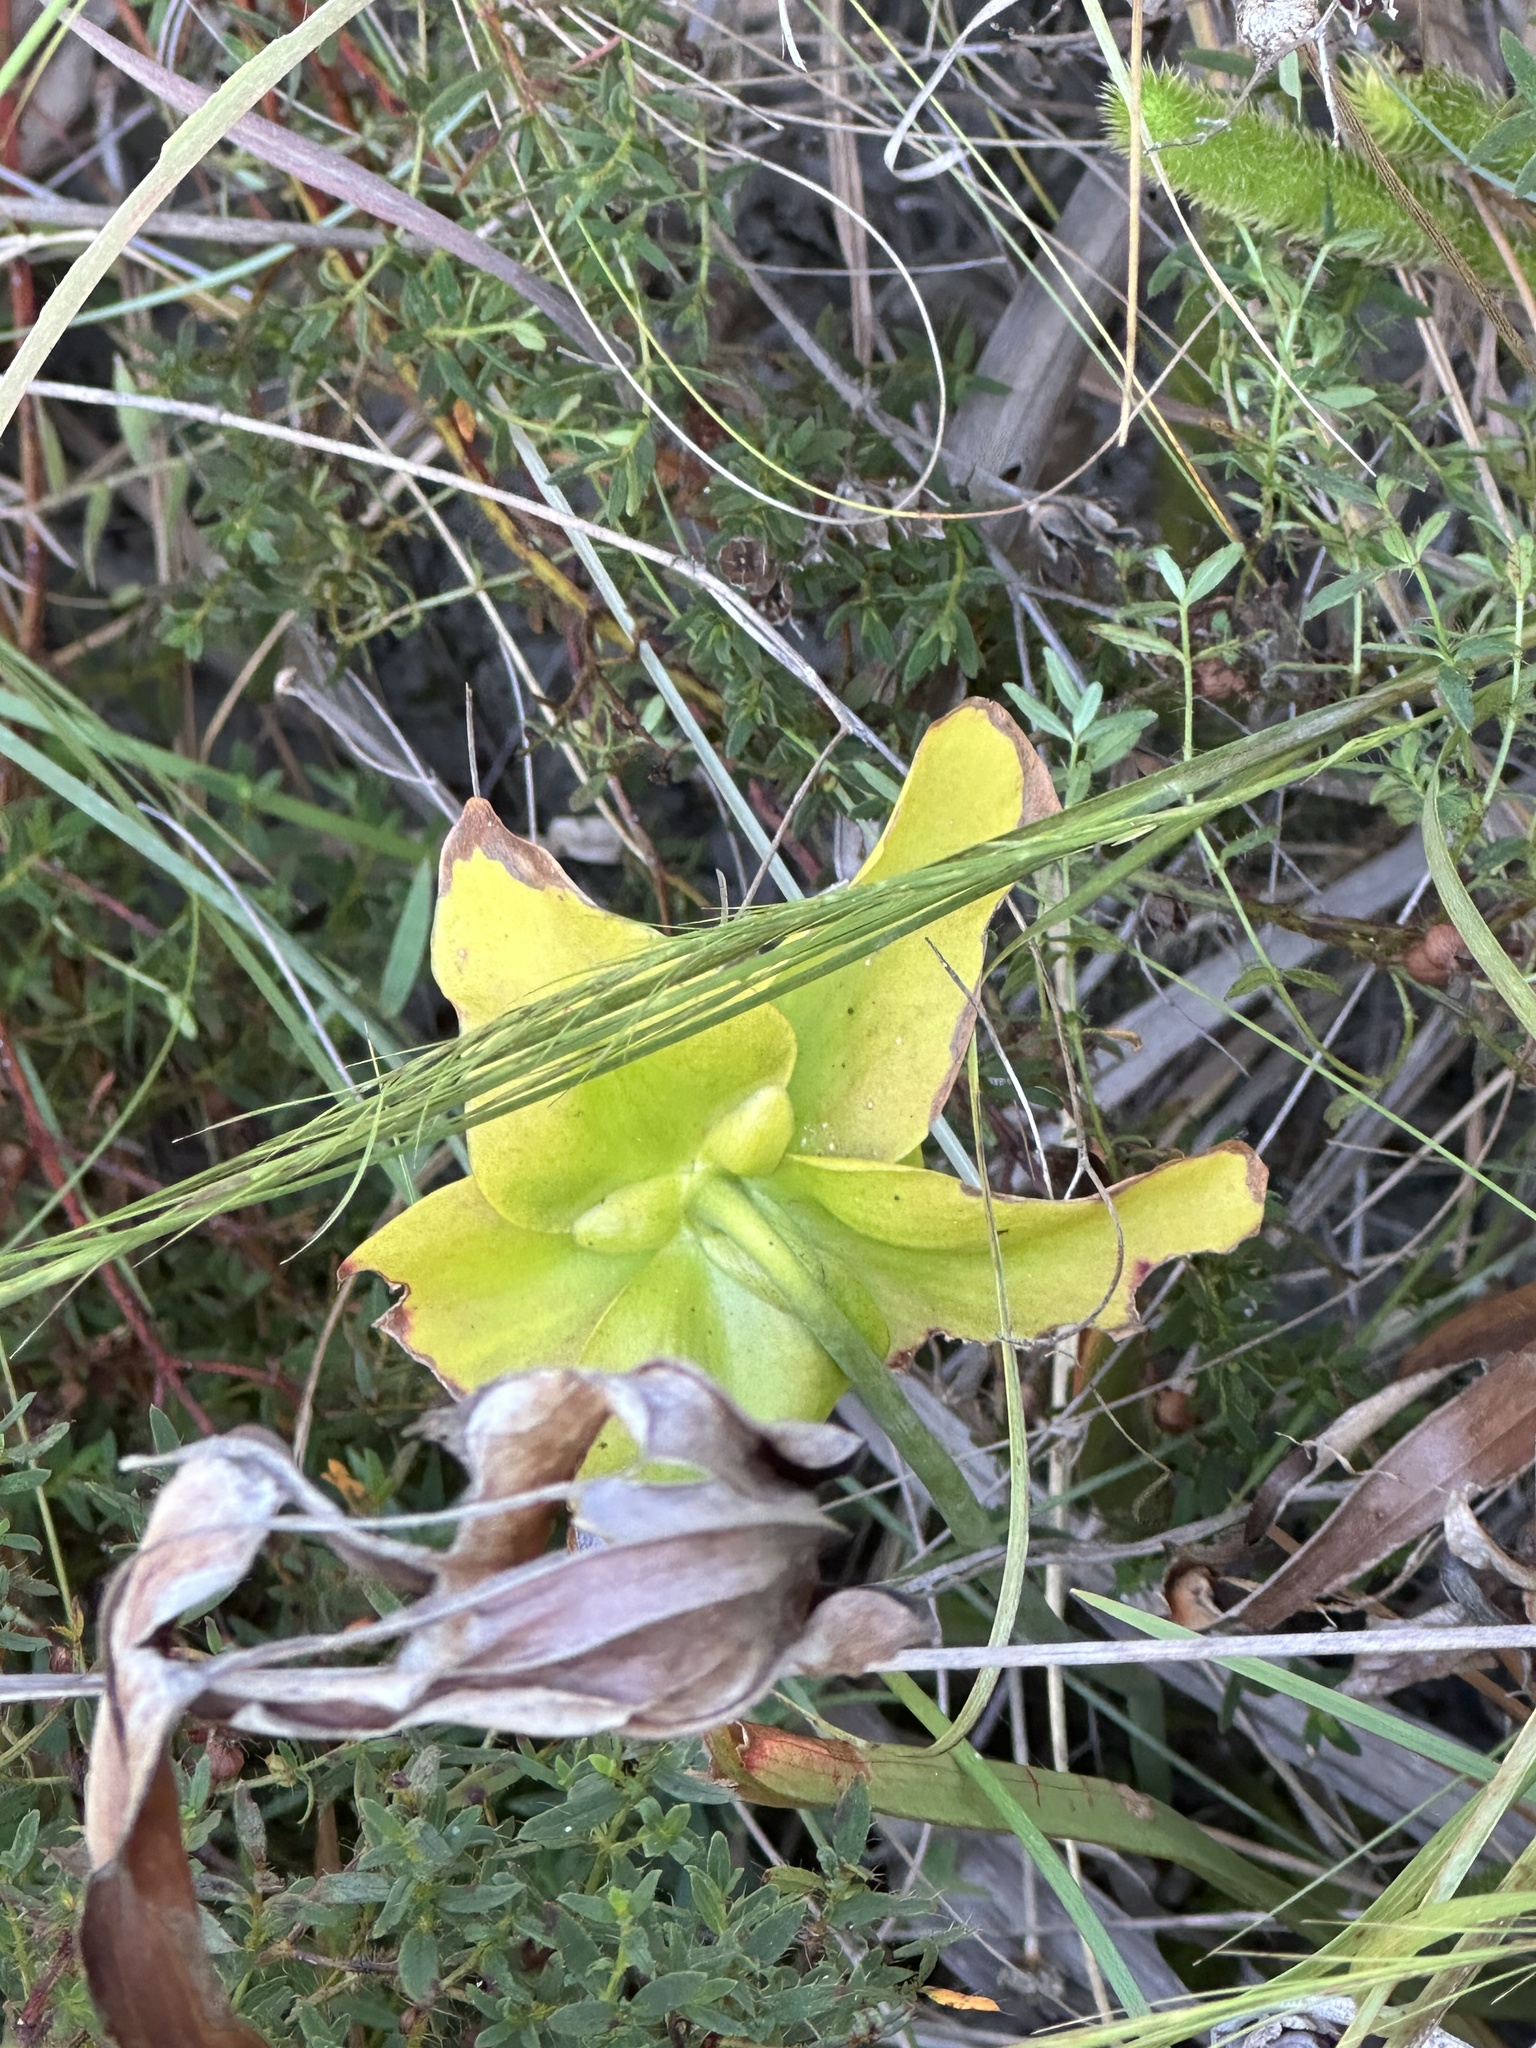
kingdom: Plantae
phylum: Tracheophyta
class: Magnoliopsida
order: Ericales
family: Sarraceniaceae
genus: Sarracenia
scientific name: Sarracenia alata
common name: Yellow trumpets
